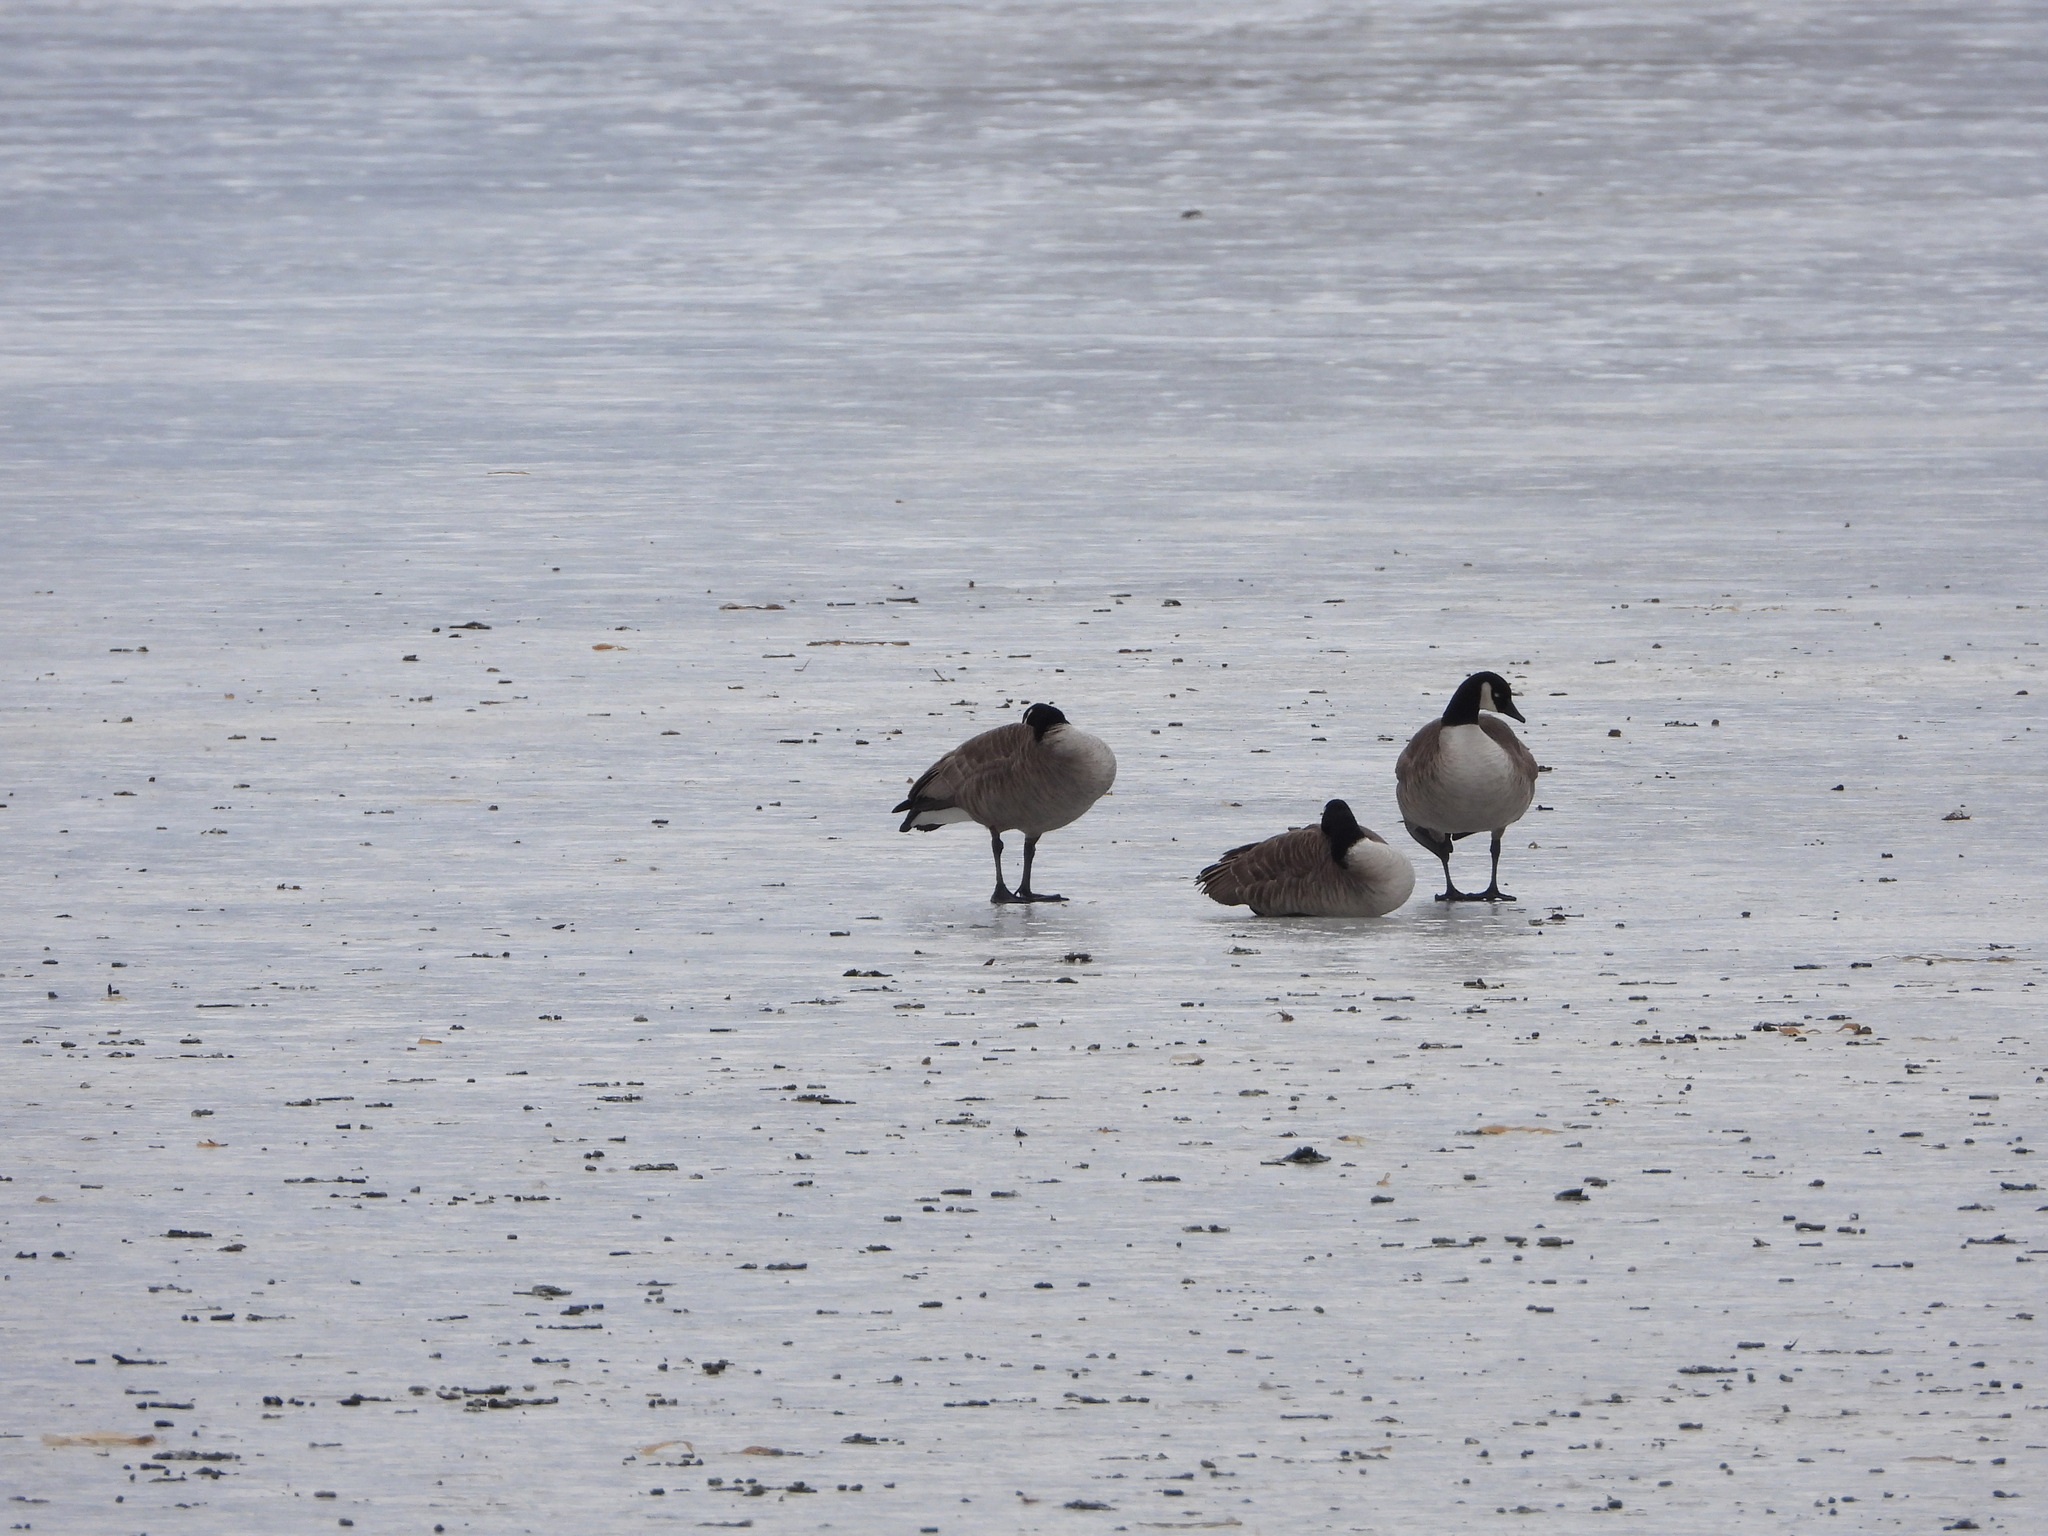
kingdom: Animalia
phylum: Chordata
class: Aves
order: Anseriformes
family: Anatidae
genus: Branta
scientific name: Branta canadensis
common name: Canada goose
